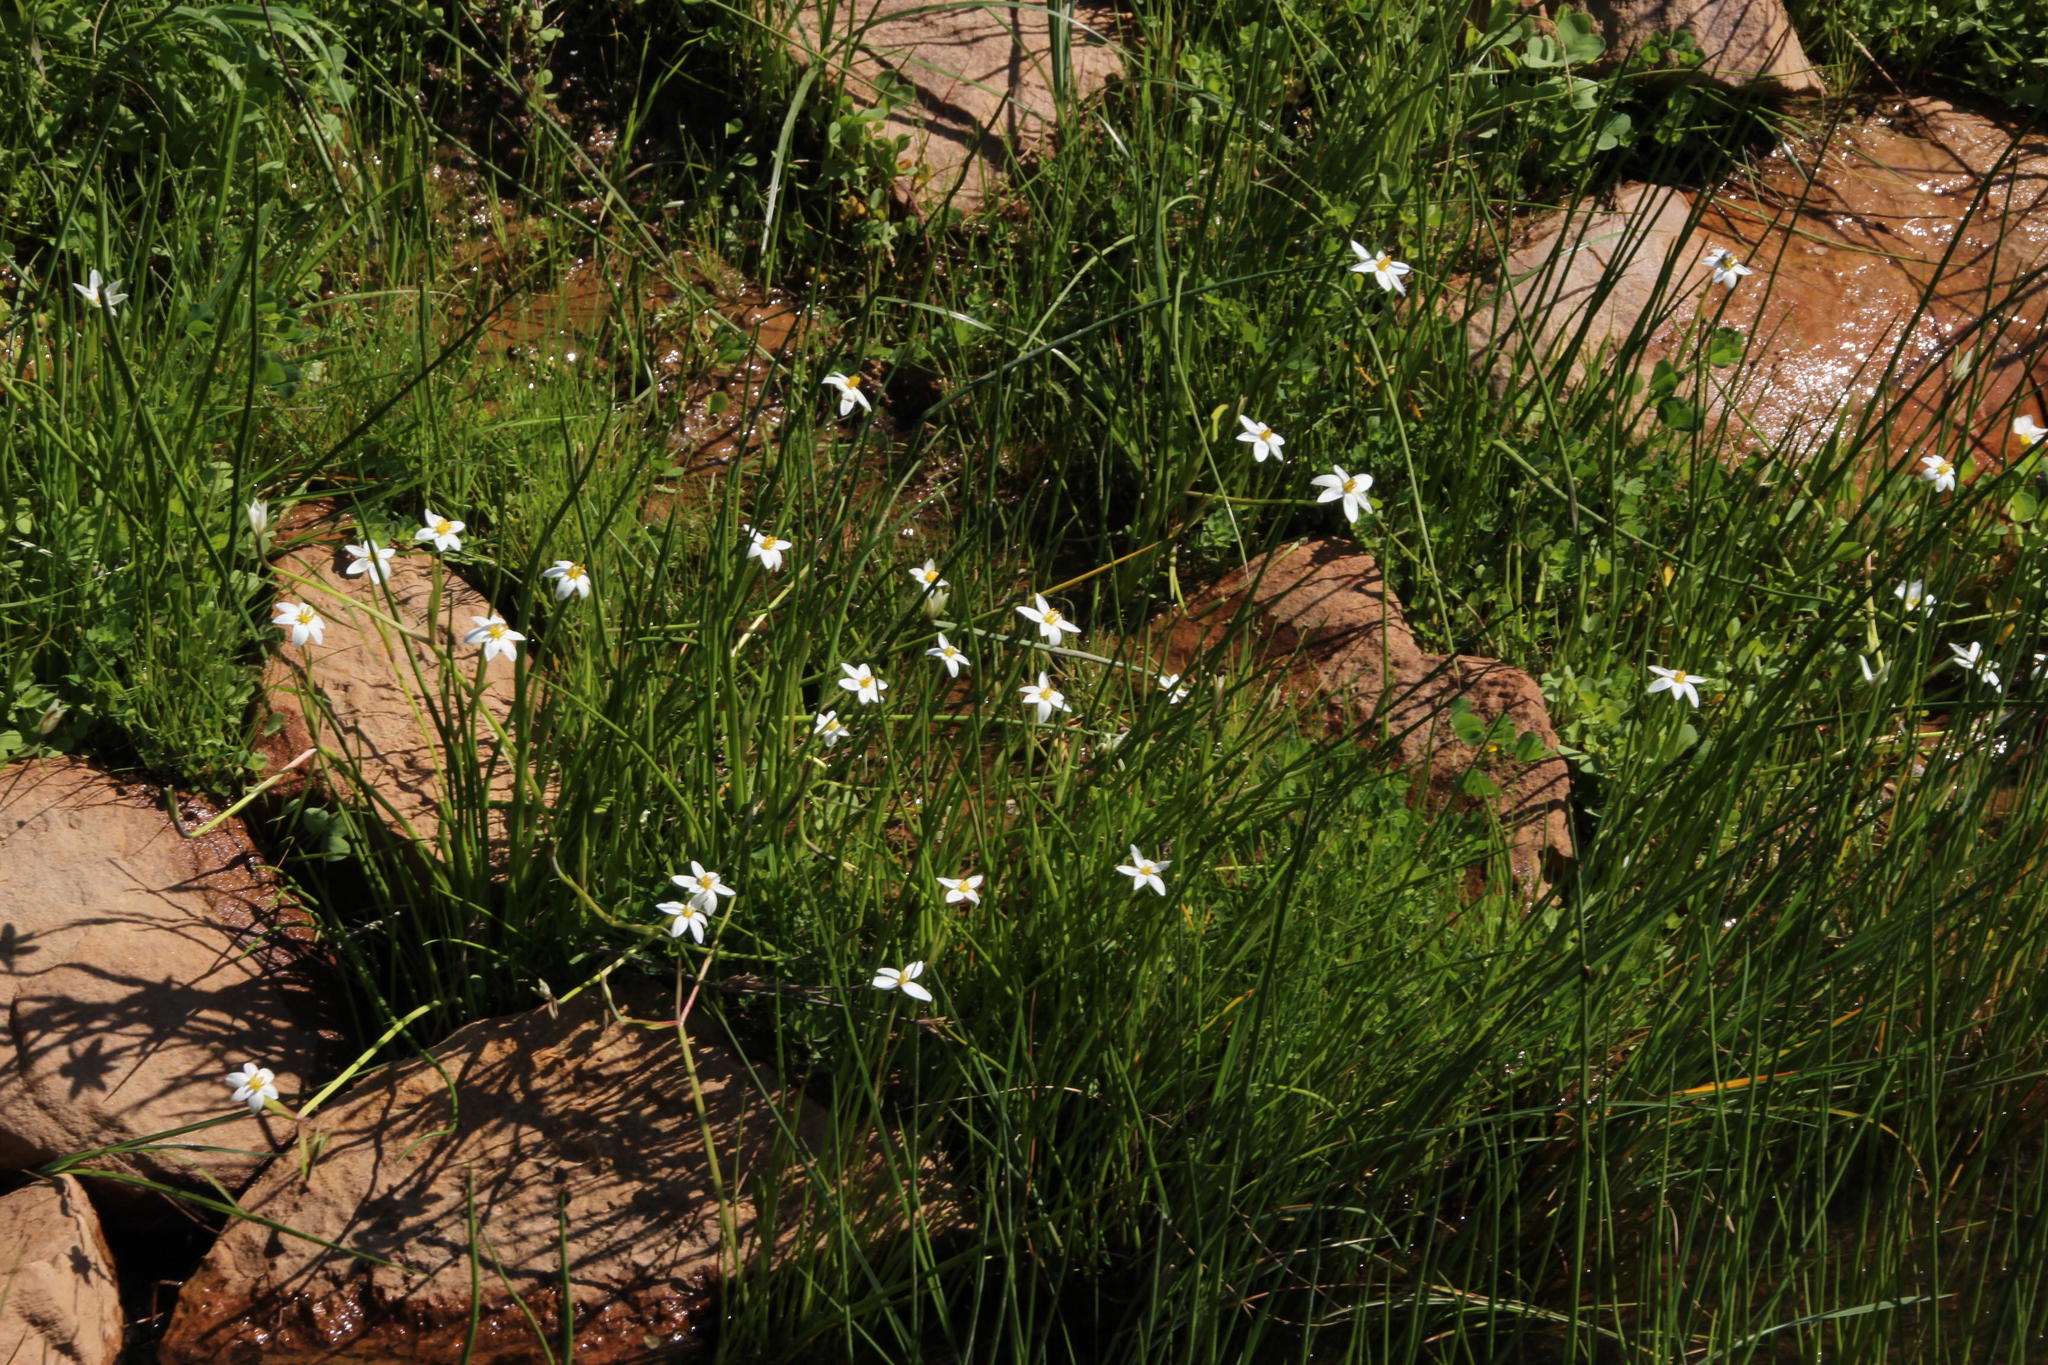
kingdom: Plantae
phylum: Tracheophyta
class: Liliopsida
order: Asparagales
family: Hypoxidaceae
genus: Pauridia
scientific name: Pauridia aquatica
